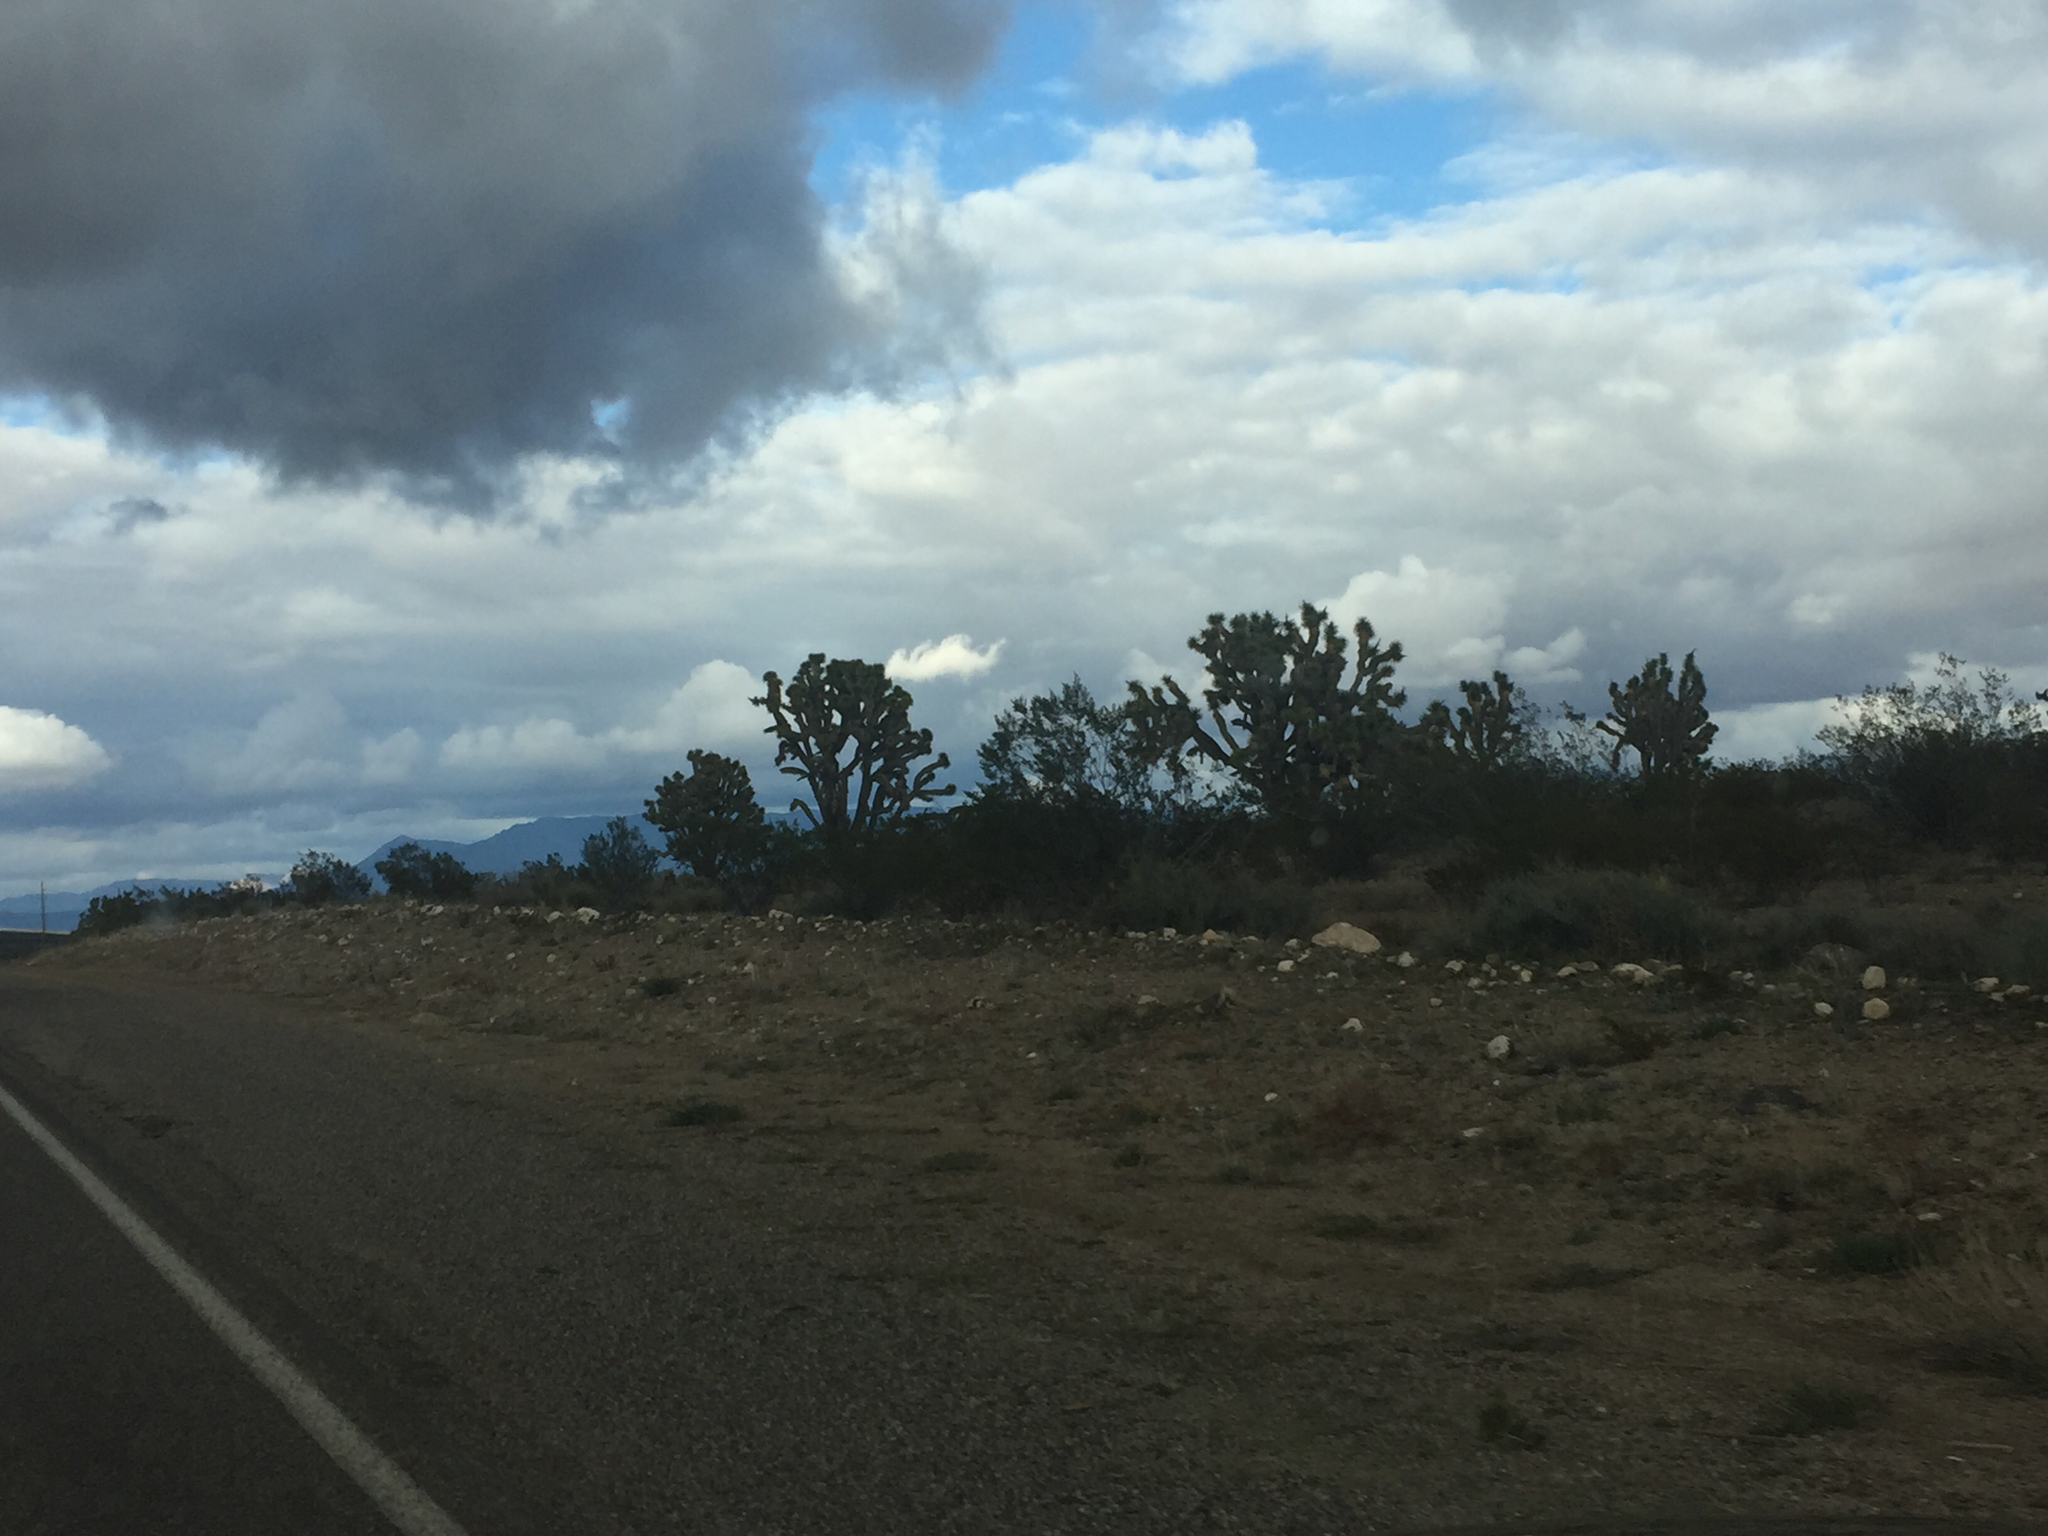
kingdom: Plantae
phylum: Tracheophyta
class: Liliopsida
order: Asparagales
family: Asparagaceae
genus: Yucca
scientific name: Yucca brevifolia
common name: Joshua tree
